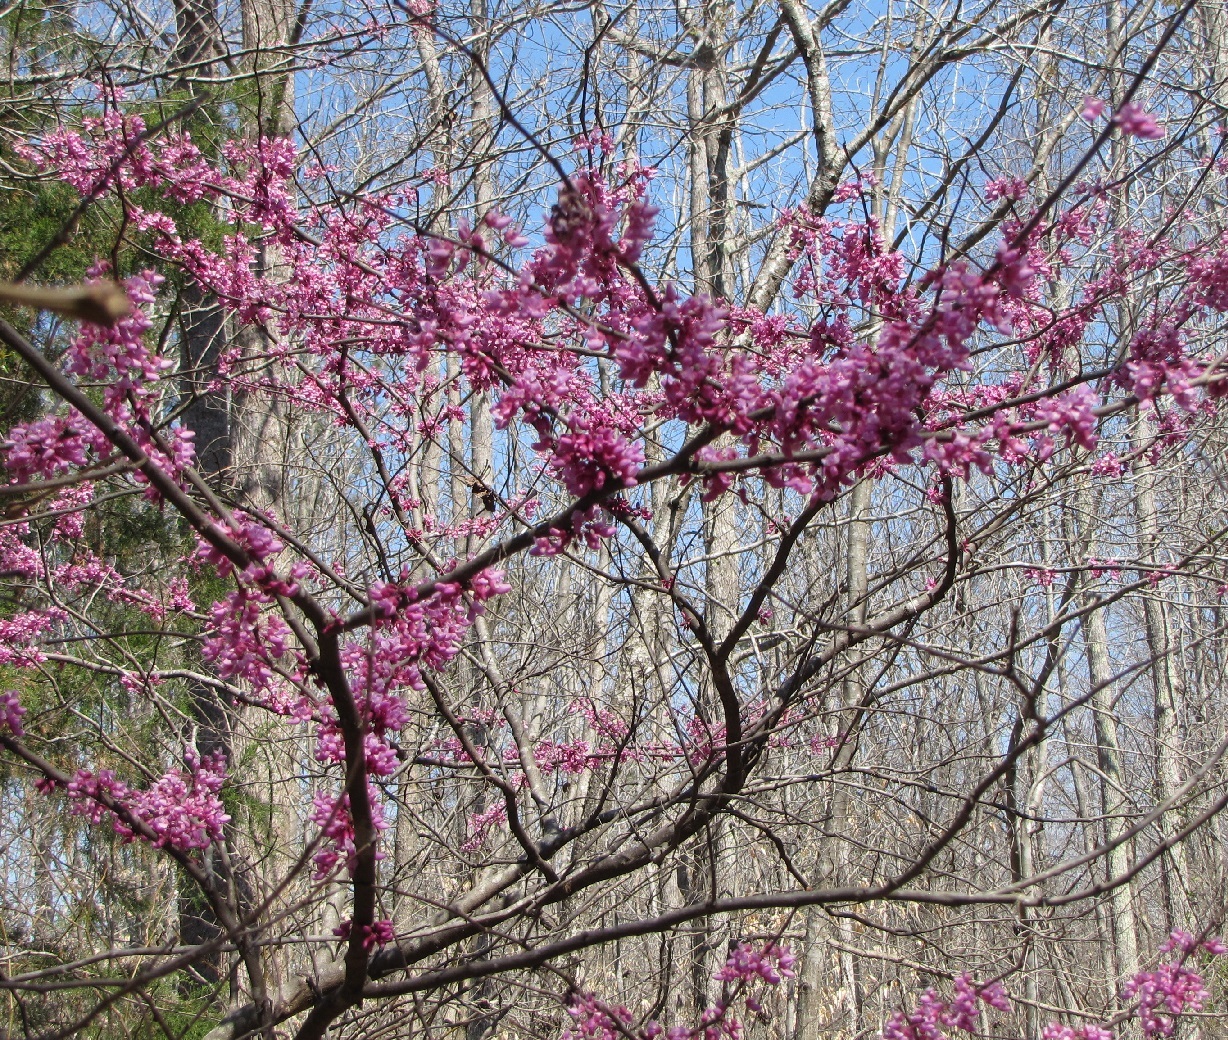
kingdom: Plantae
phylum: Tracheophyta
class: Magnoliopsida
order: Fabales
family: Fabaceae
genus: Cercis
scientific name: Cercis canadensis
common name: Eastern redbud
